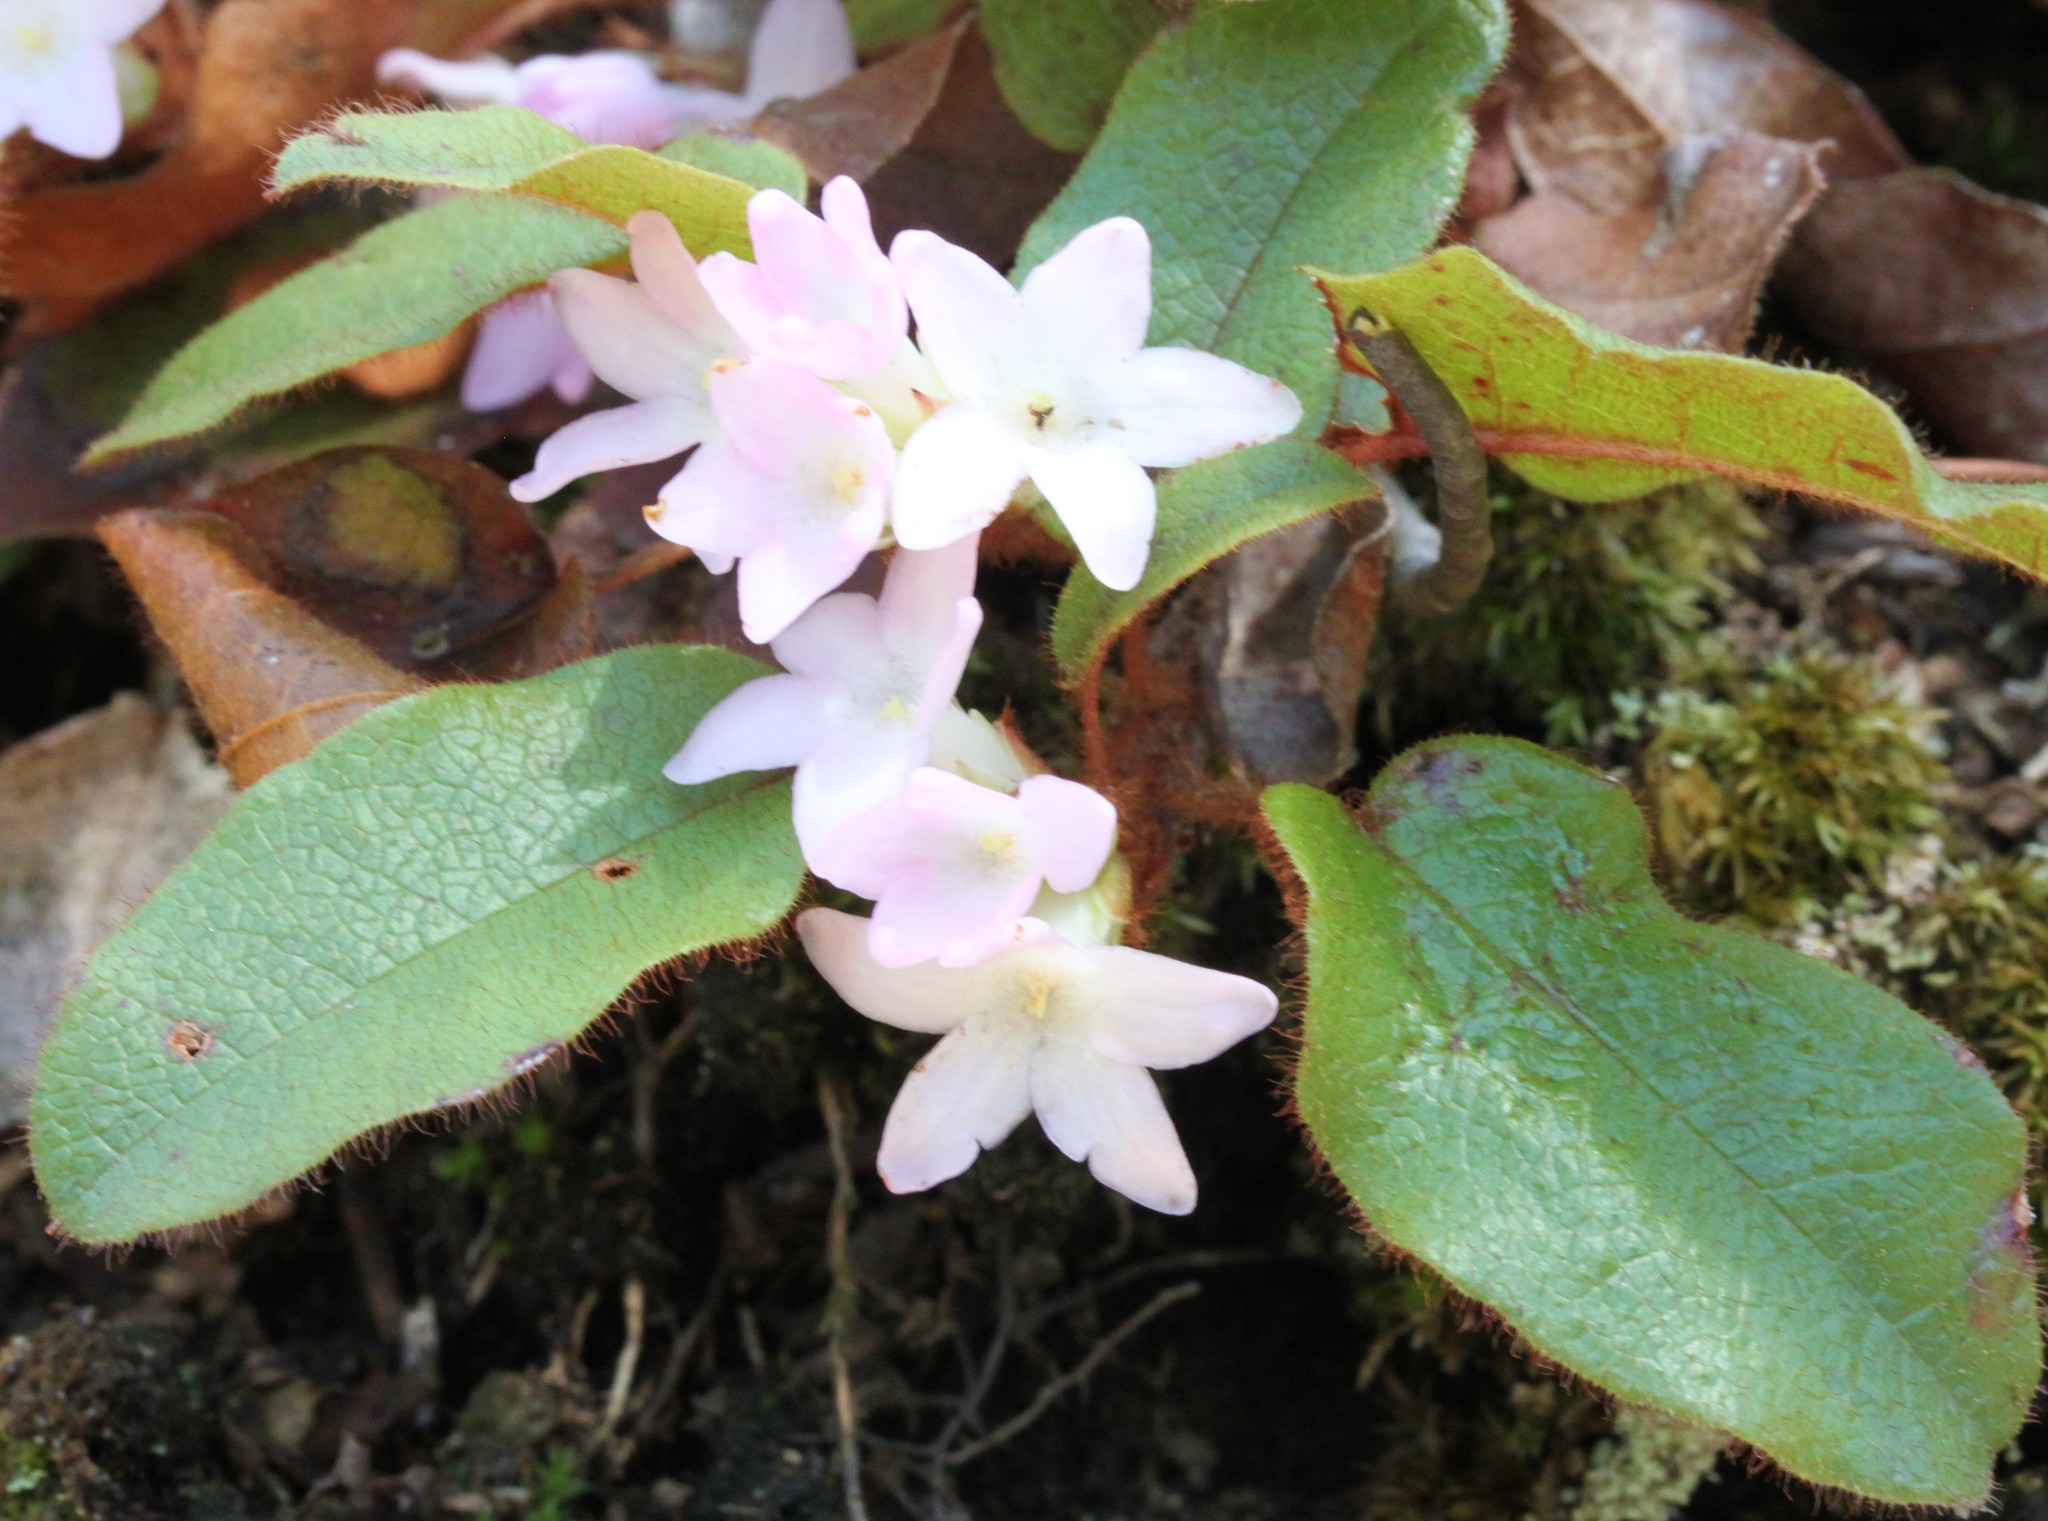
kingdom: Plantae
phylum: Tracheophyta
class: Magnoliopsida
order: Ericales
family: Ericaceae
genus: Epigaea
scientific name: Epigaea repens
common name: Gravelroot
